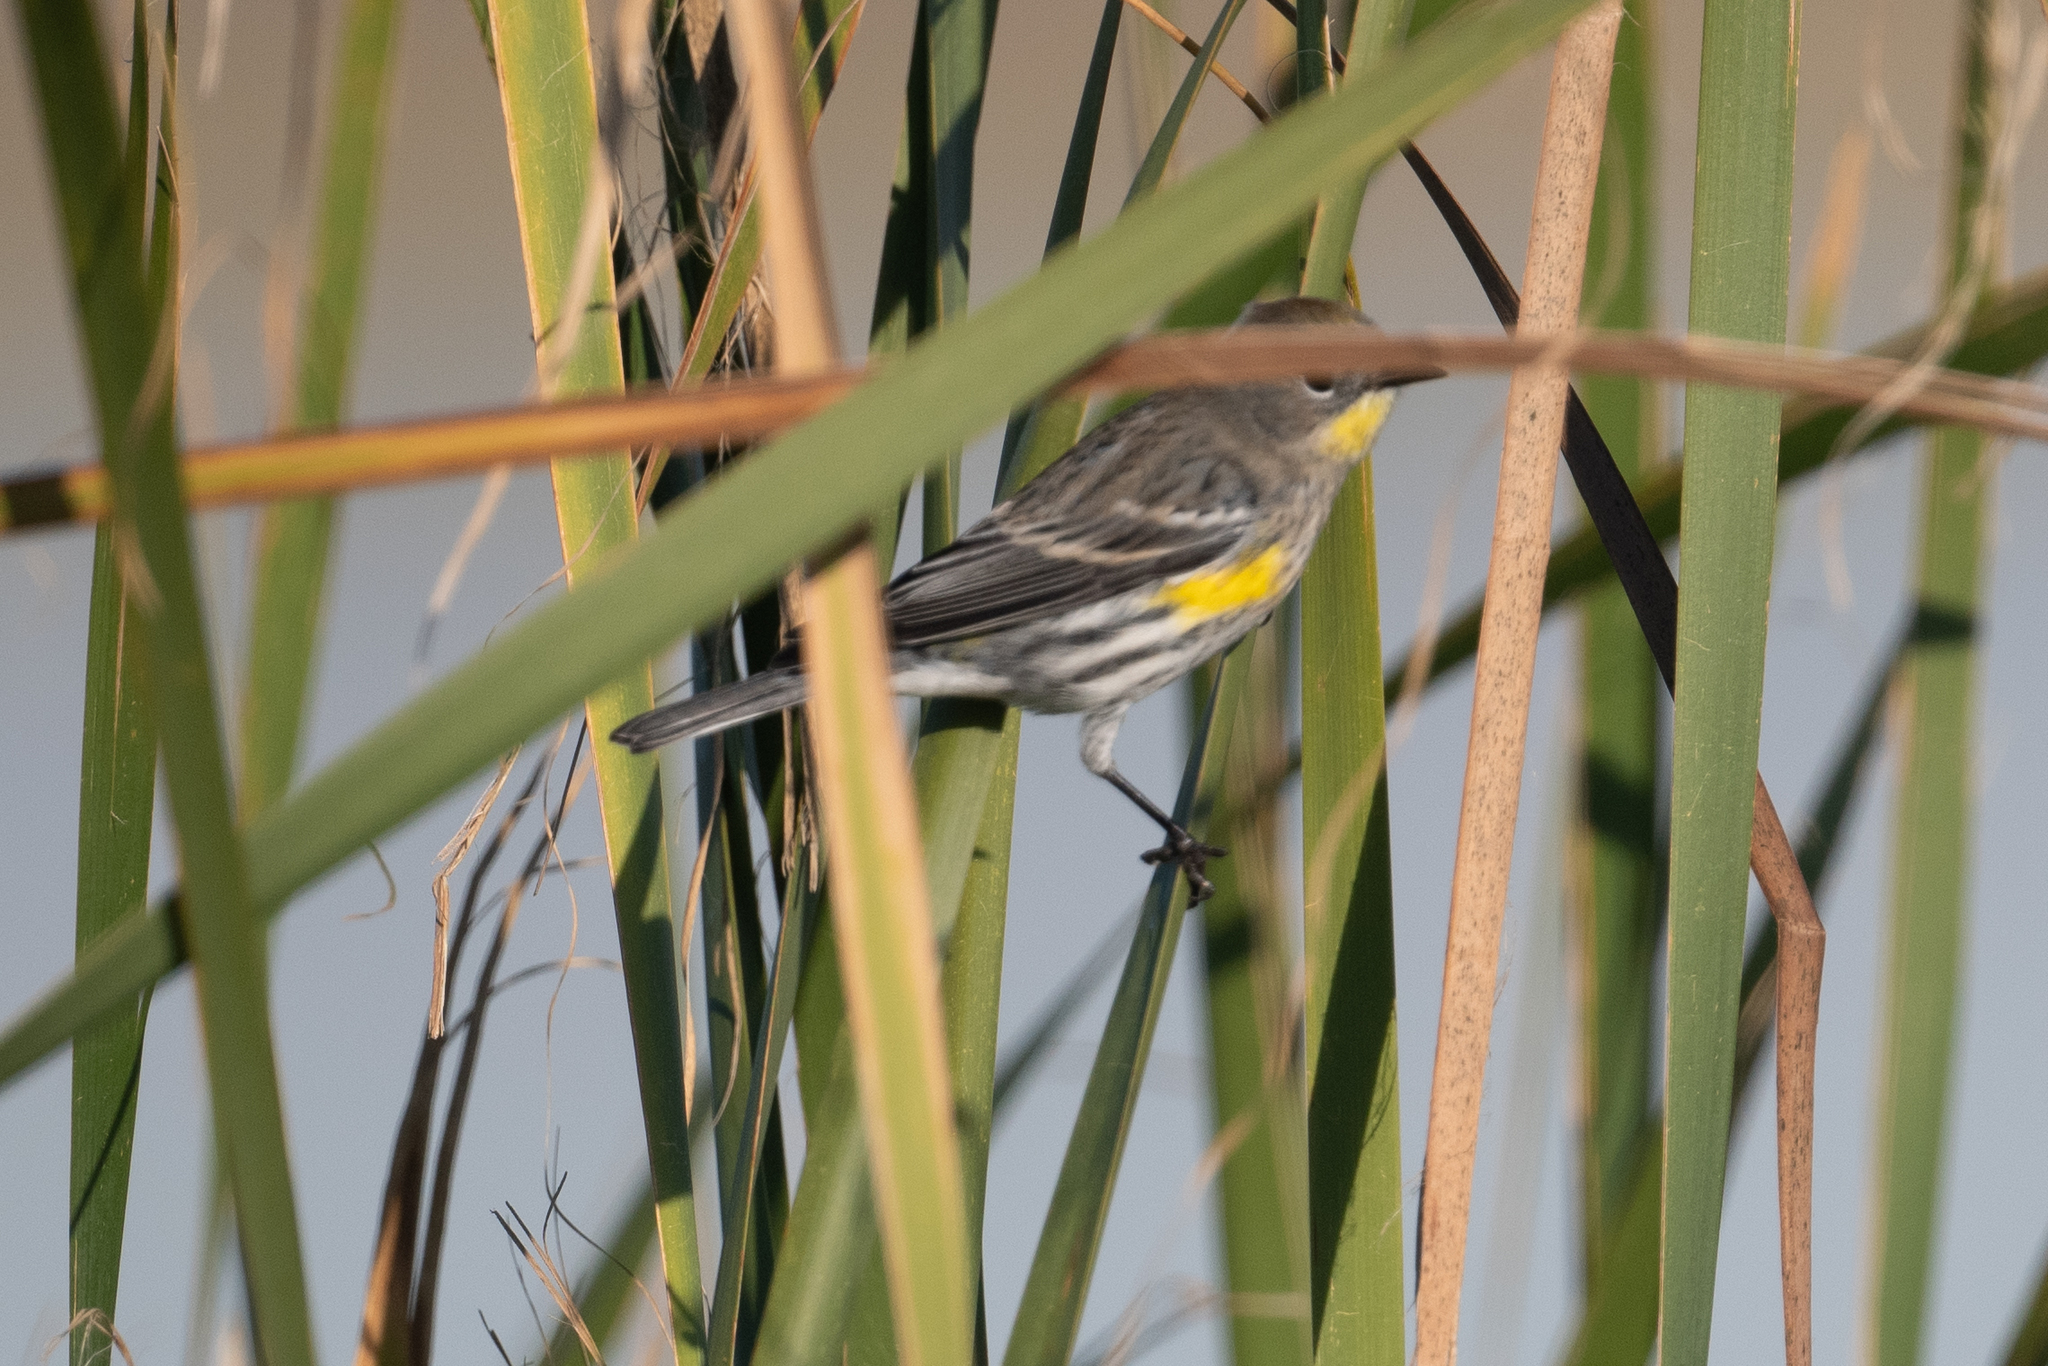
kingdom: Animalia
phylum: Chordata
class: Aves
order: Passeriformes
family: Parulidae
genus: Setophaga
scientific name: Setophaga coronata
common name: Myrtle warbler
